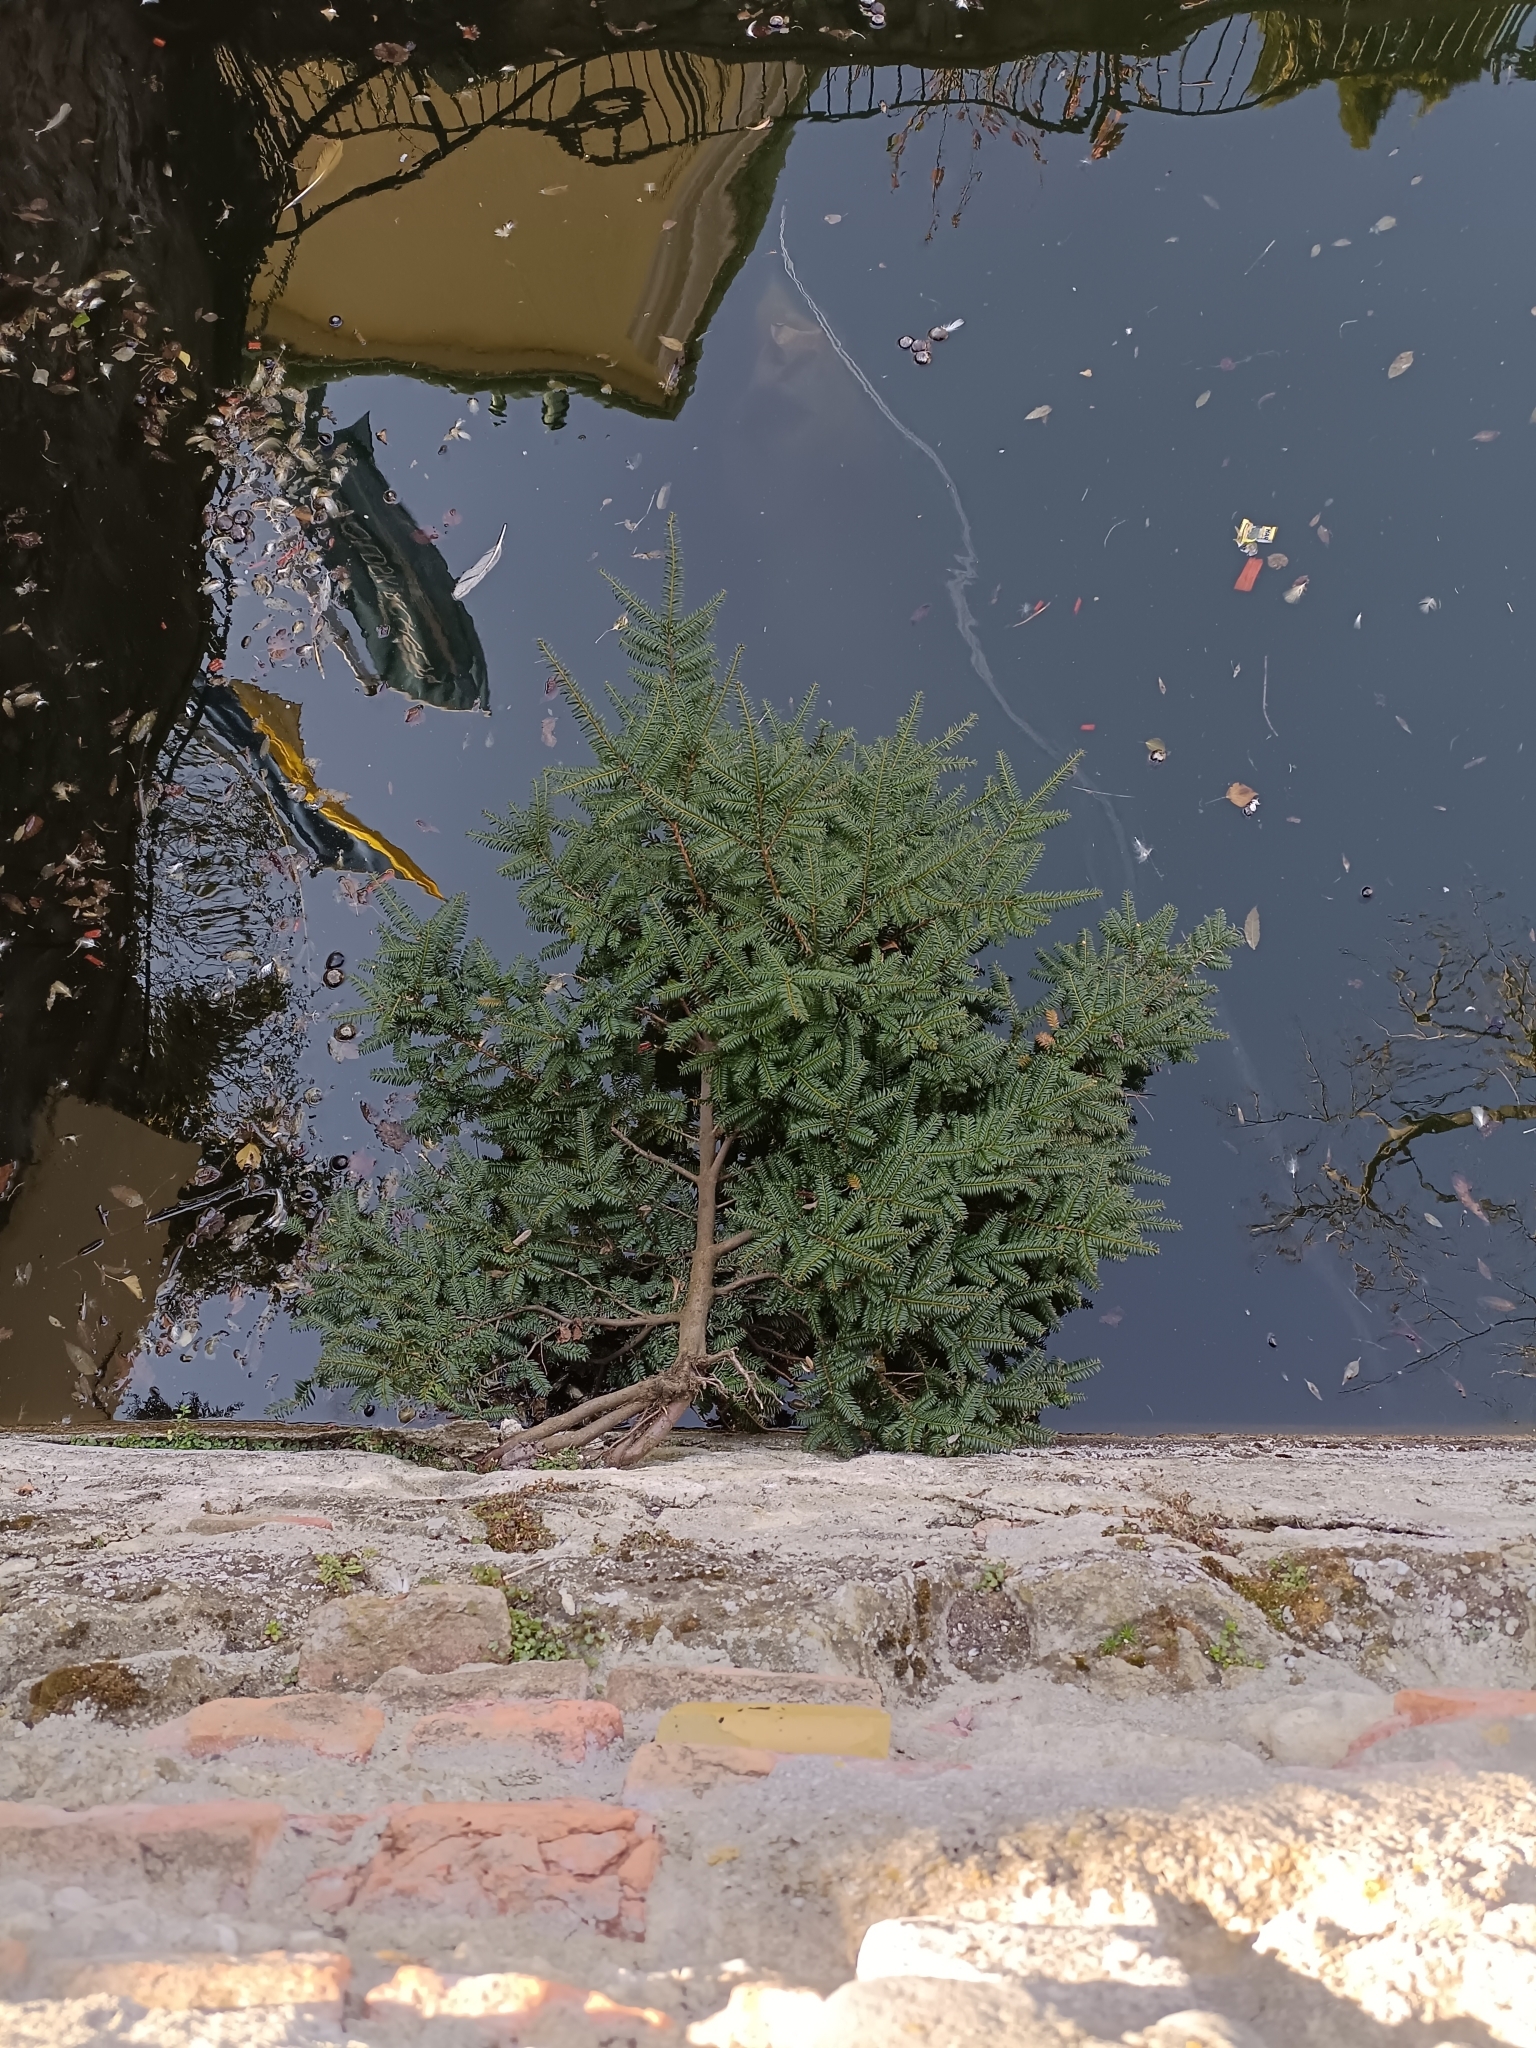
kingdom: Plantae
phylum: Tracheophyta
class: Pinopsida
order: Pinales
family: Taxaceae
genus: Taxus
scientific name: Taxus baccata
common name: Yew
